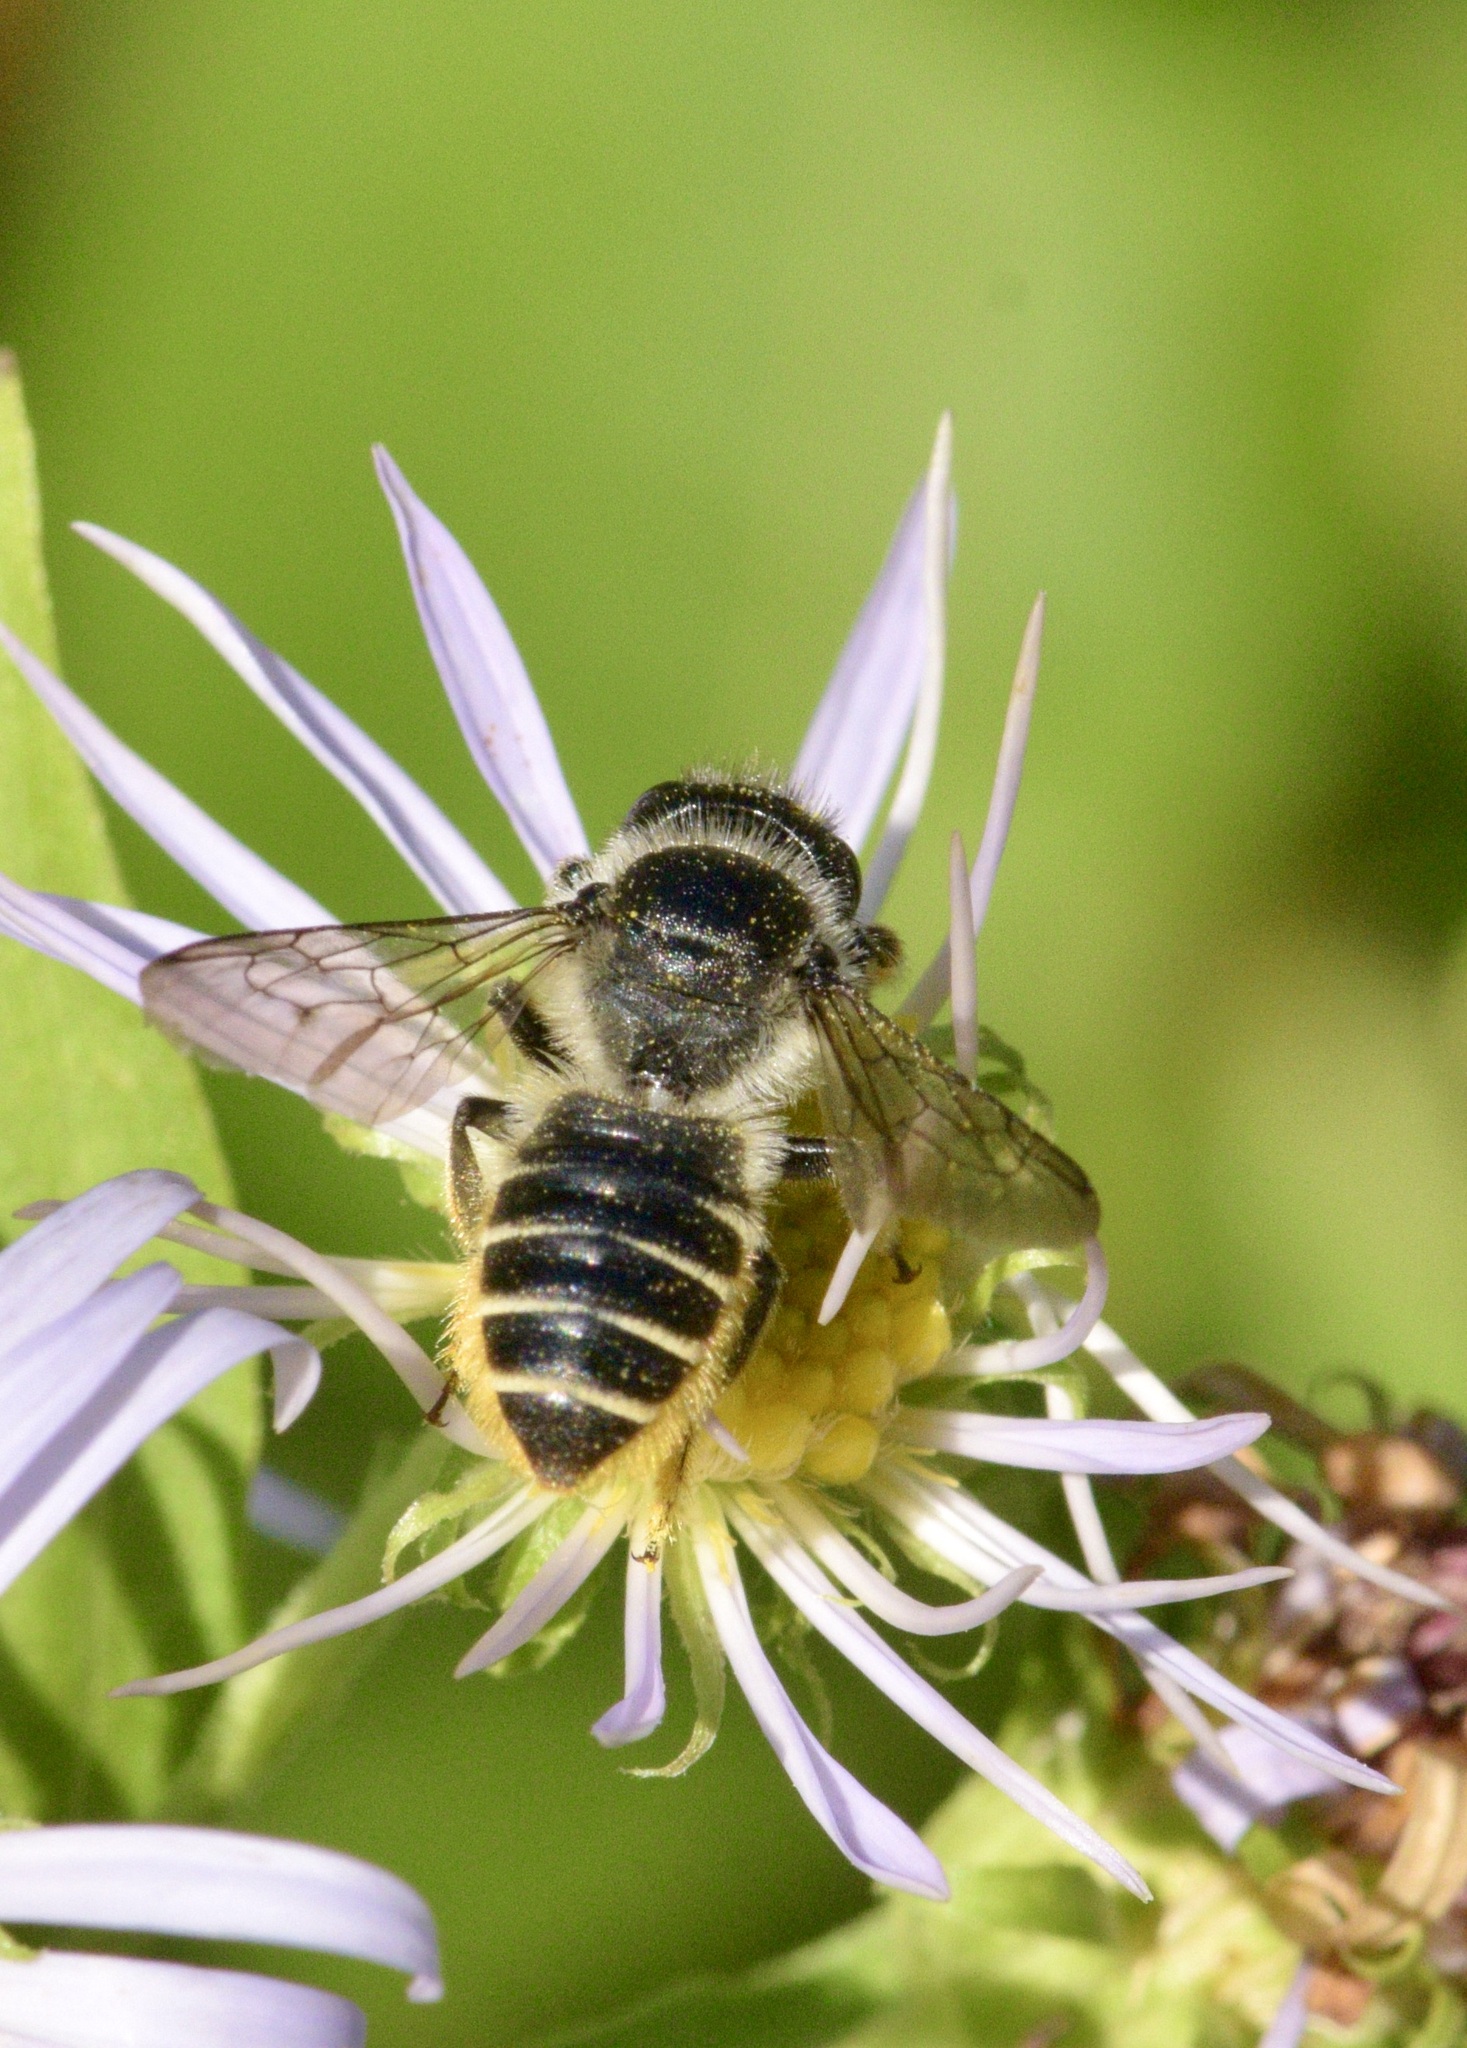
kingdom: Animalia
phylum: Arthropoda
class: Insecta
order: Hymenoptera
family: Megachilidae
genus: Megachile
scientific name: Megachile relativa
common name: Golden-tailed leafcutter
